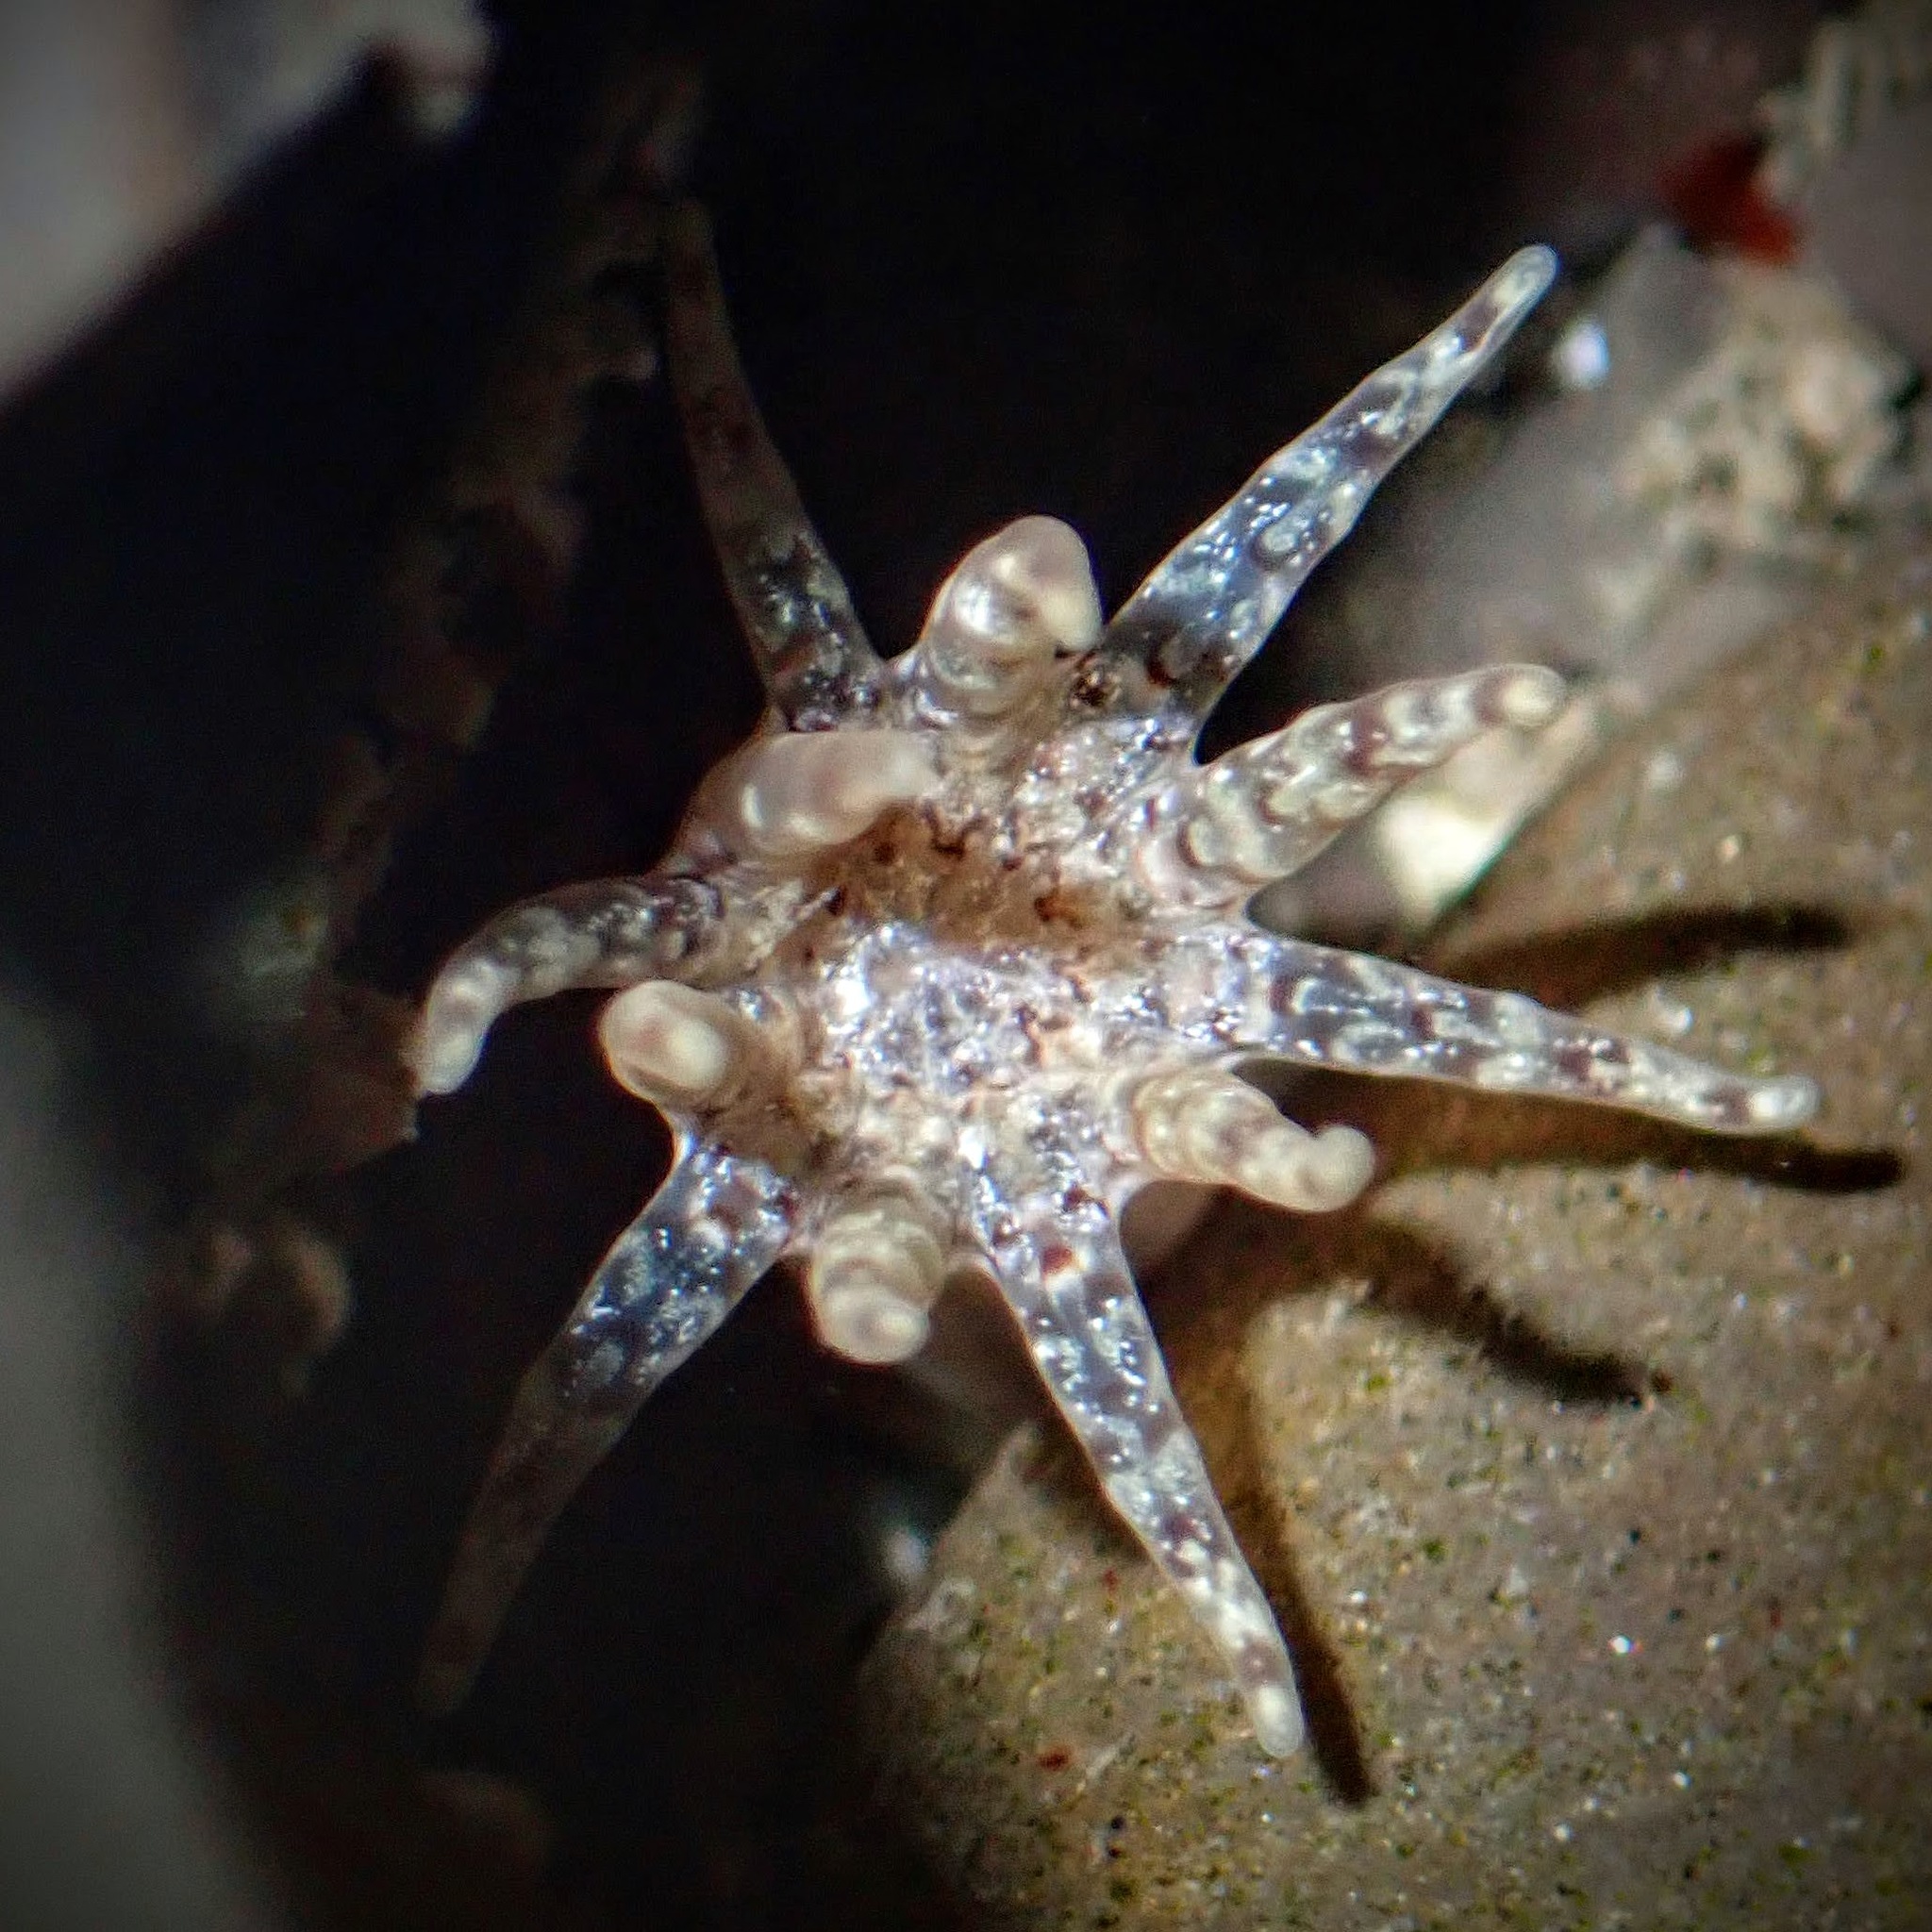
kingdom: Animalia
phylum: Cnidaria
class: Anthozoa
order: Actiniaria
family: Halcampidae
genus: Halcampa
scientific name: Halcampa crypta
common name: Cryptic burrowing anemone
